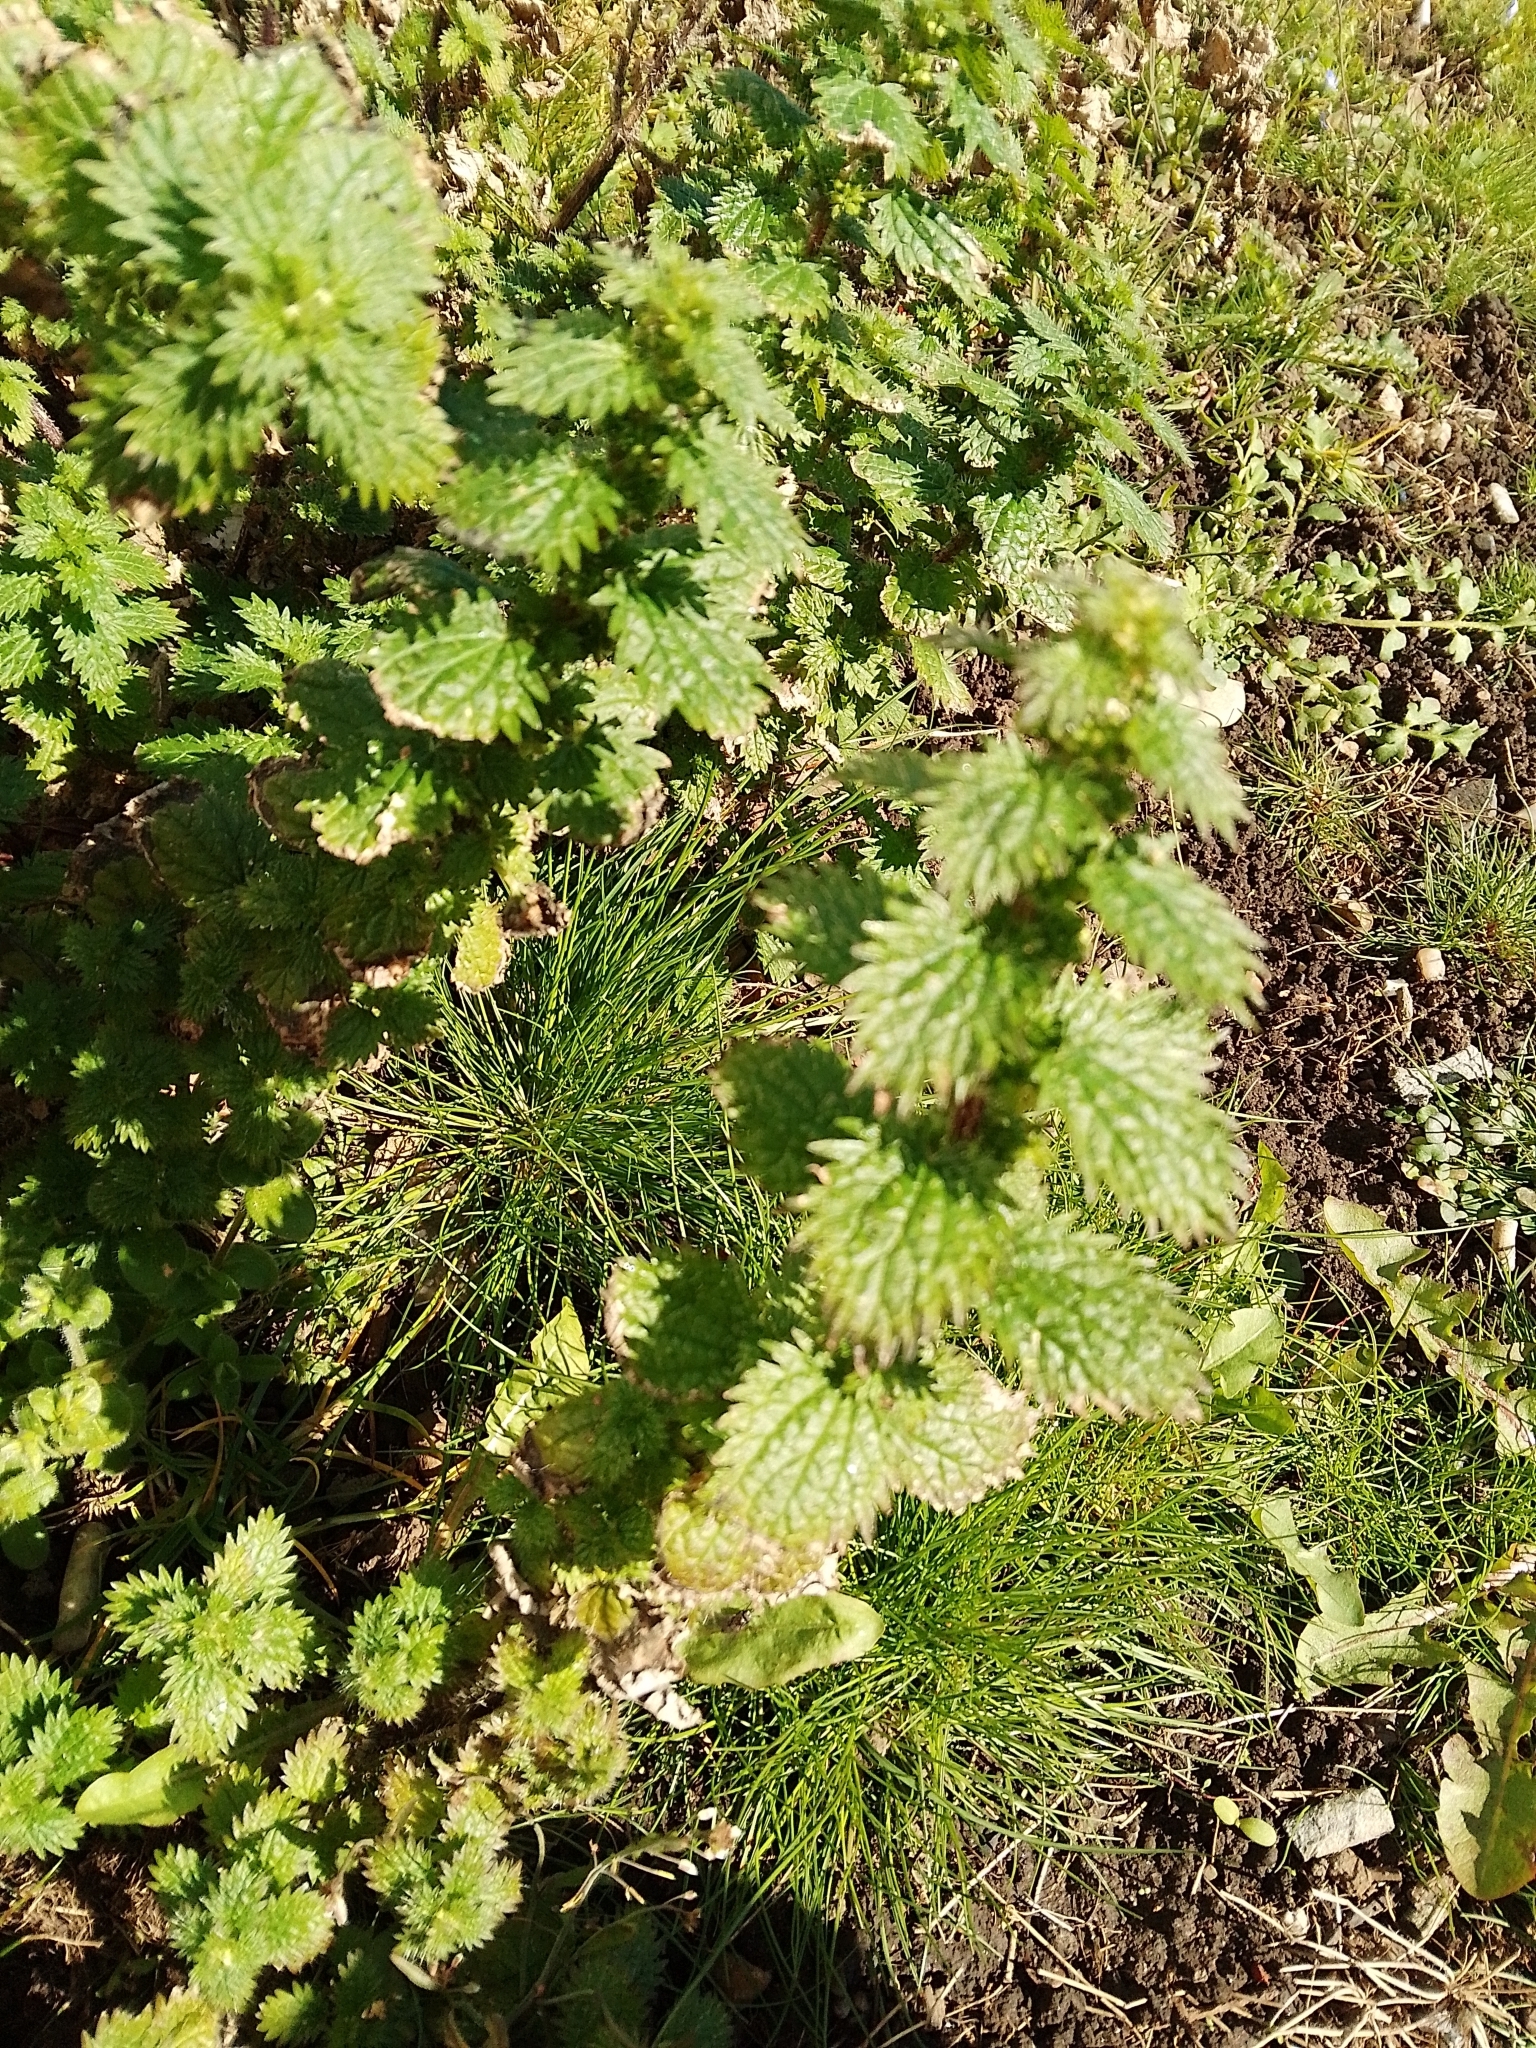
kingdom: Plantae
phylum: Tracheophyta
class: Magnoliopsida
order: Rosales
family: Urticaceae
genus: Urtica
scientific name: Urtica urens
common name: Dwarf nettle
